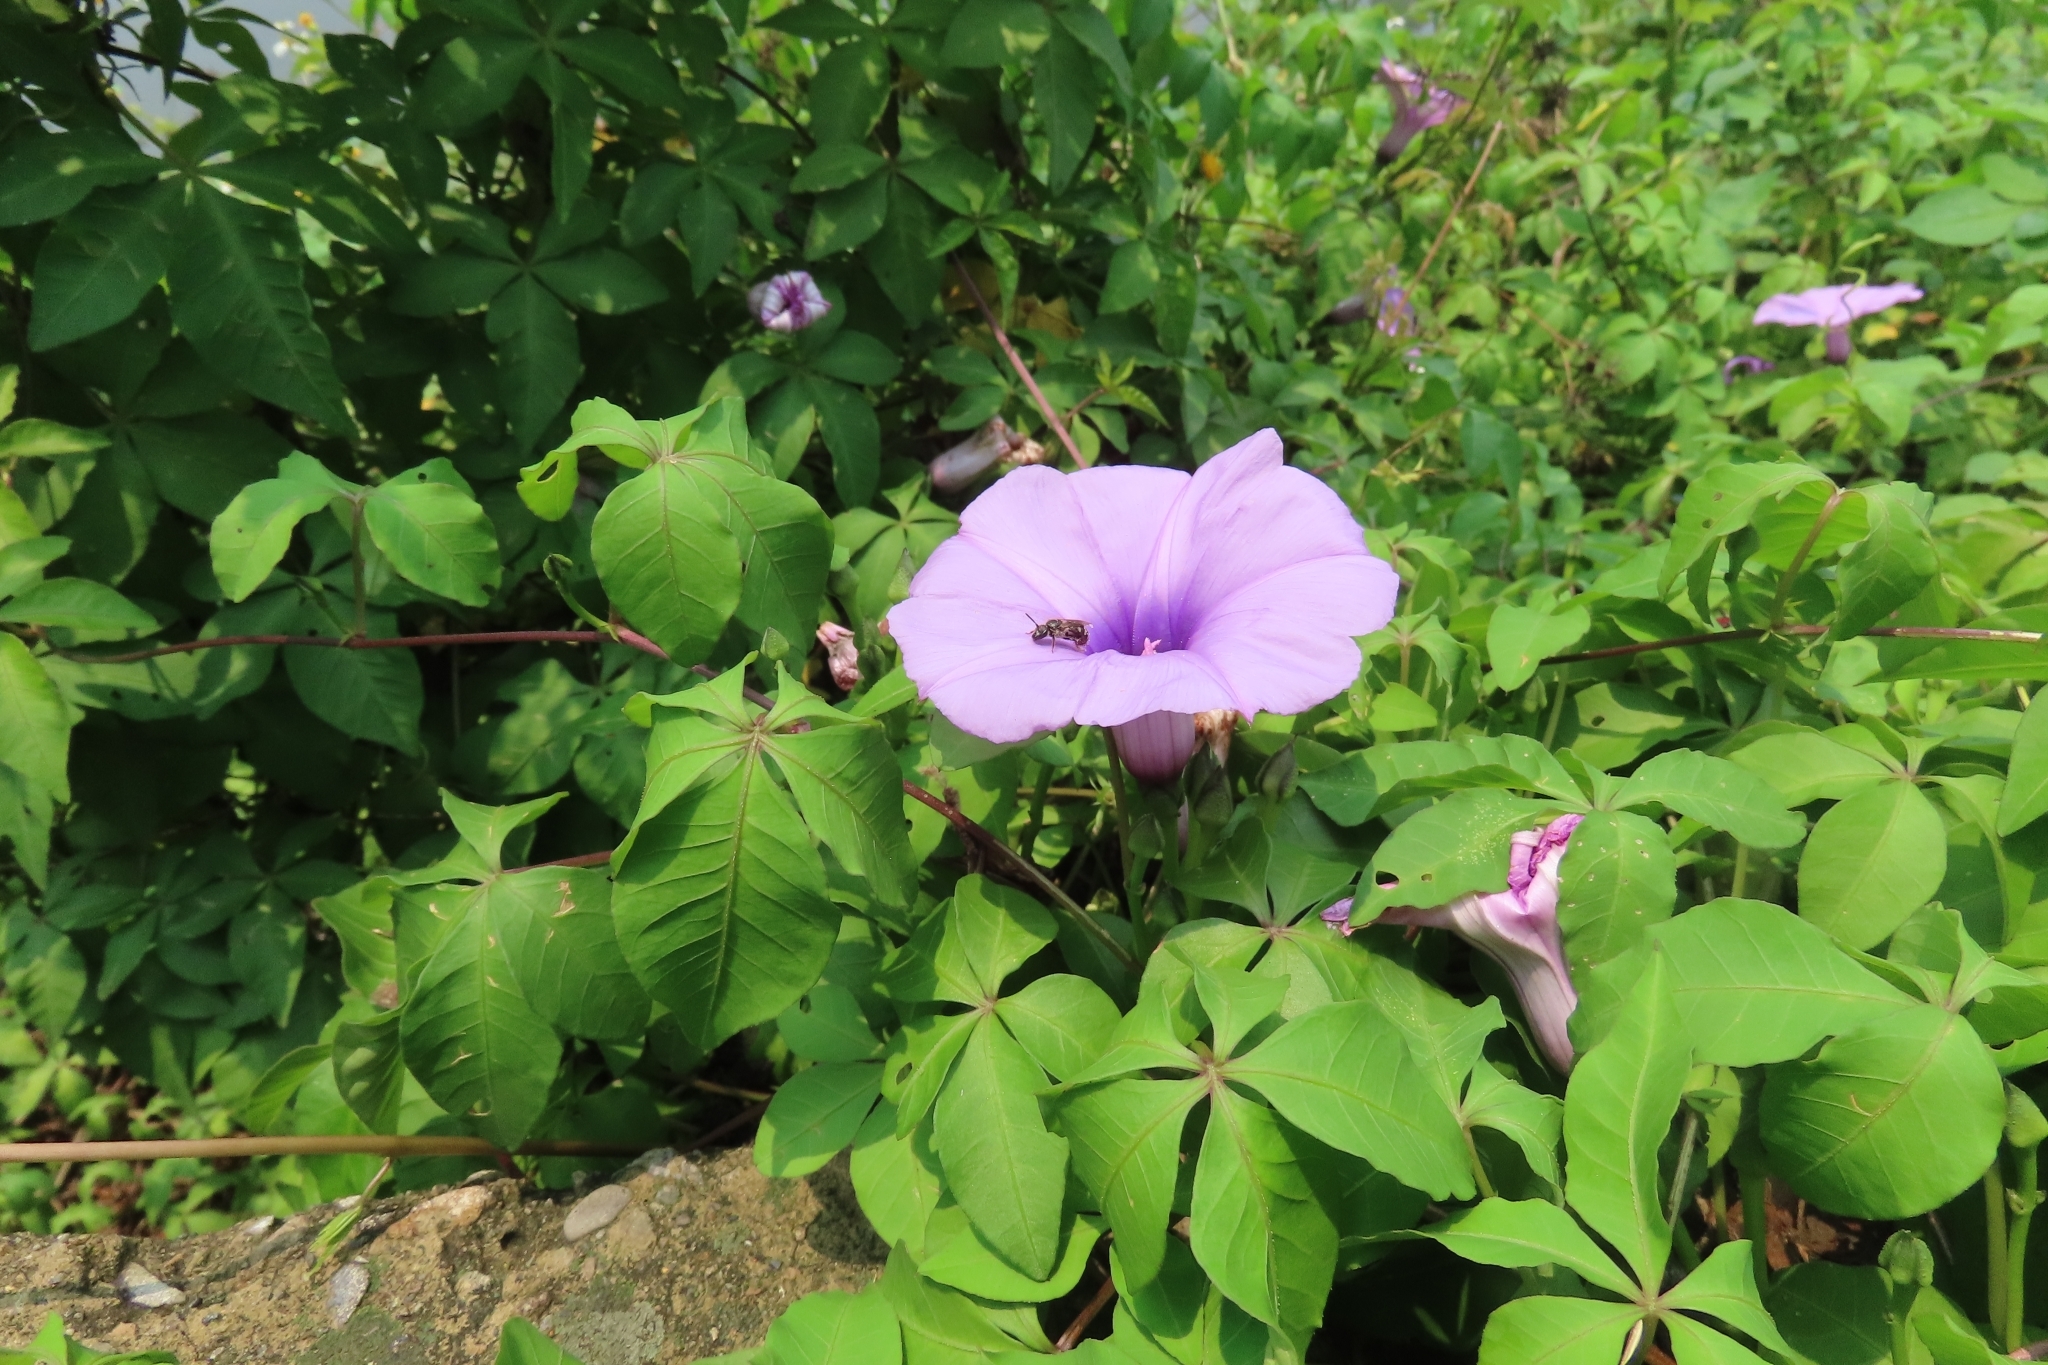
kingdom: Plantae
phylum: Tracheophyta
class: Magnoliopsida
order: Solanales
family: Convolvulaceae
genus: Ipomoea
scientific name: Ipomoea cairica
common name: Mile a minute vine
